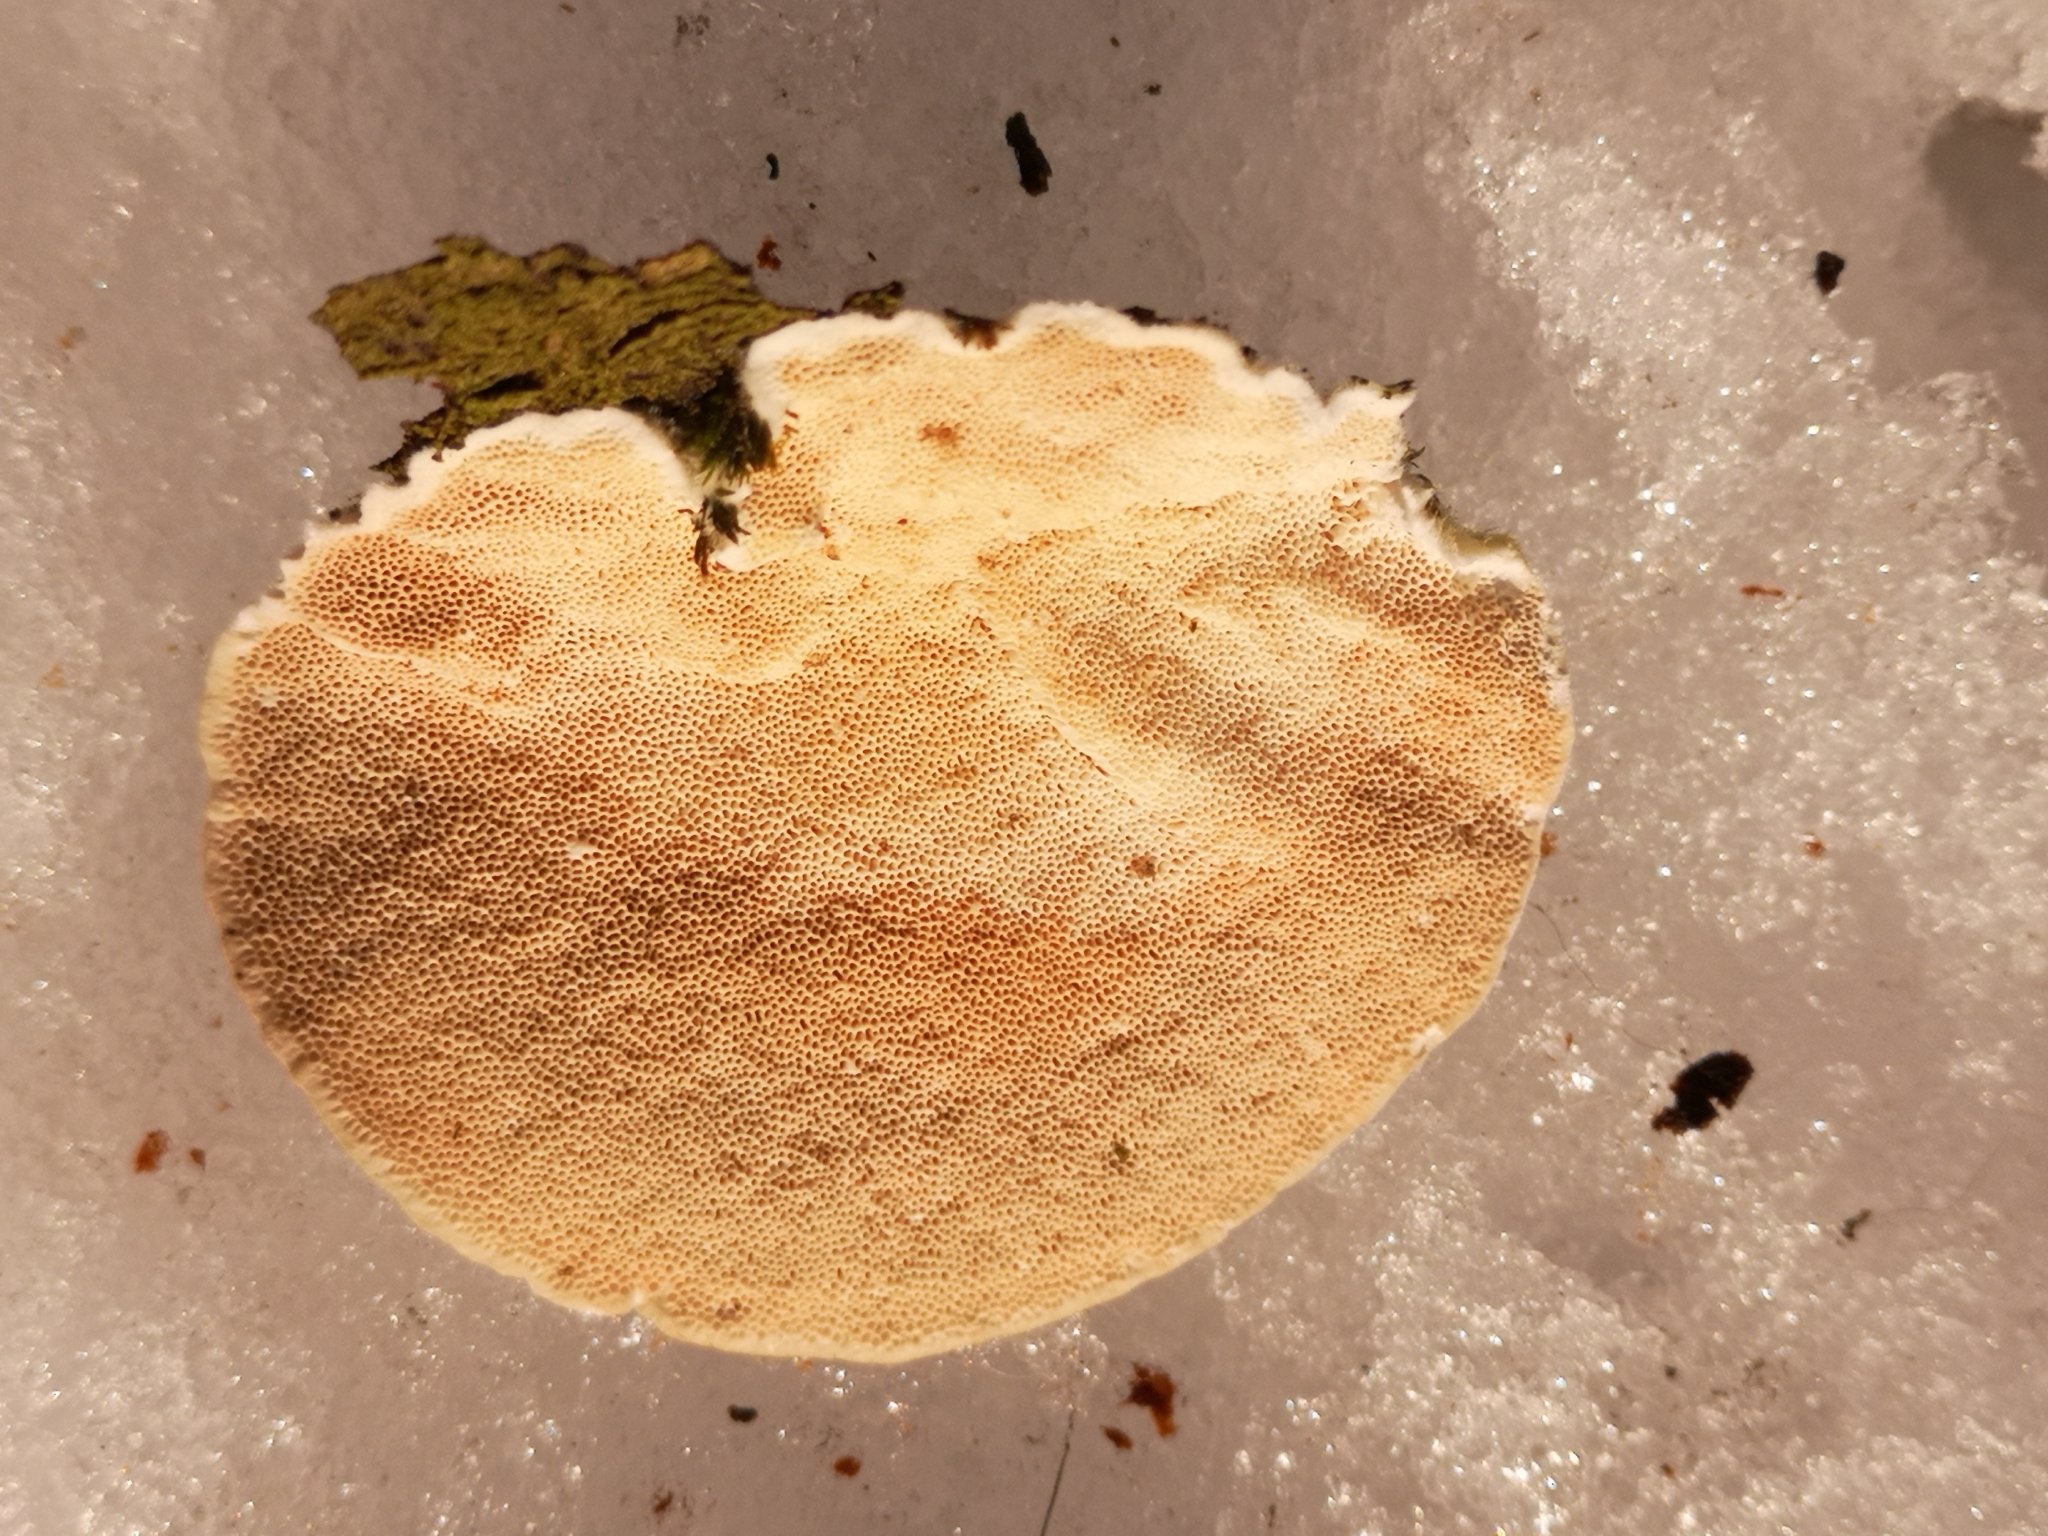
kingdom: Fungi
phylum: Basidiomycota
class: Agaricomycetes
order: Polyporales
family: Polyporaceae
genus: Trametes
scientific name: Trametes hirsuta
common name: Hairy bracket
